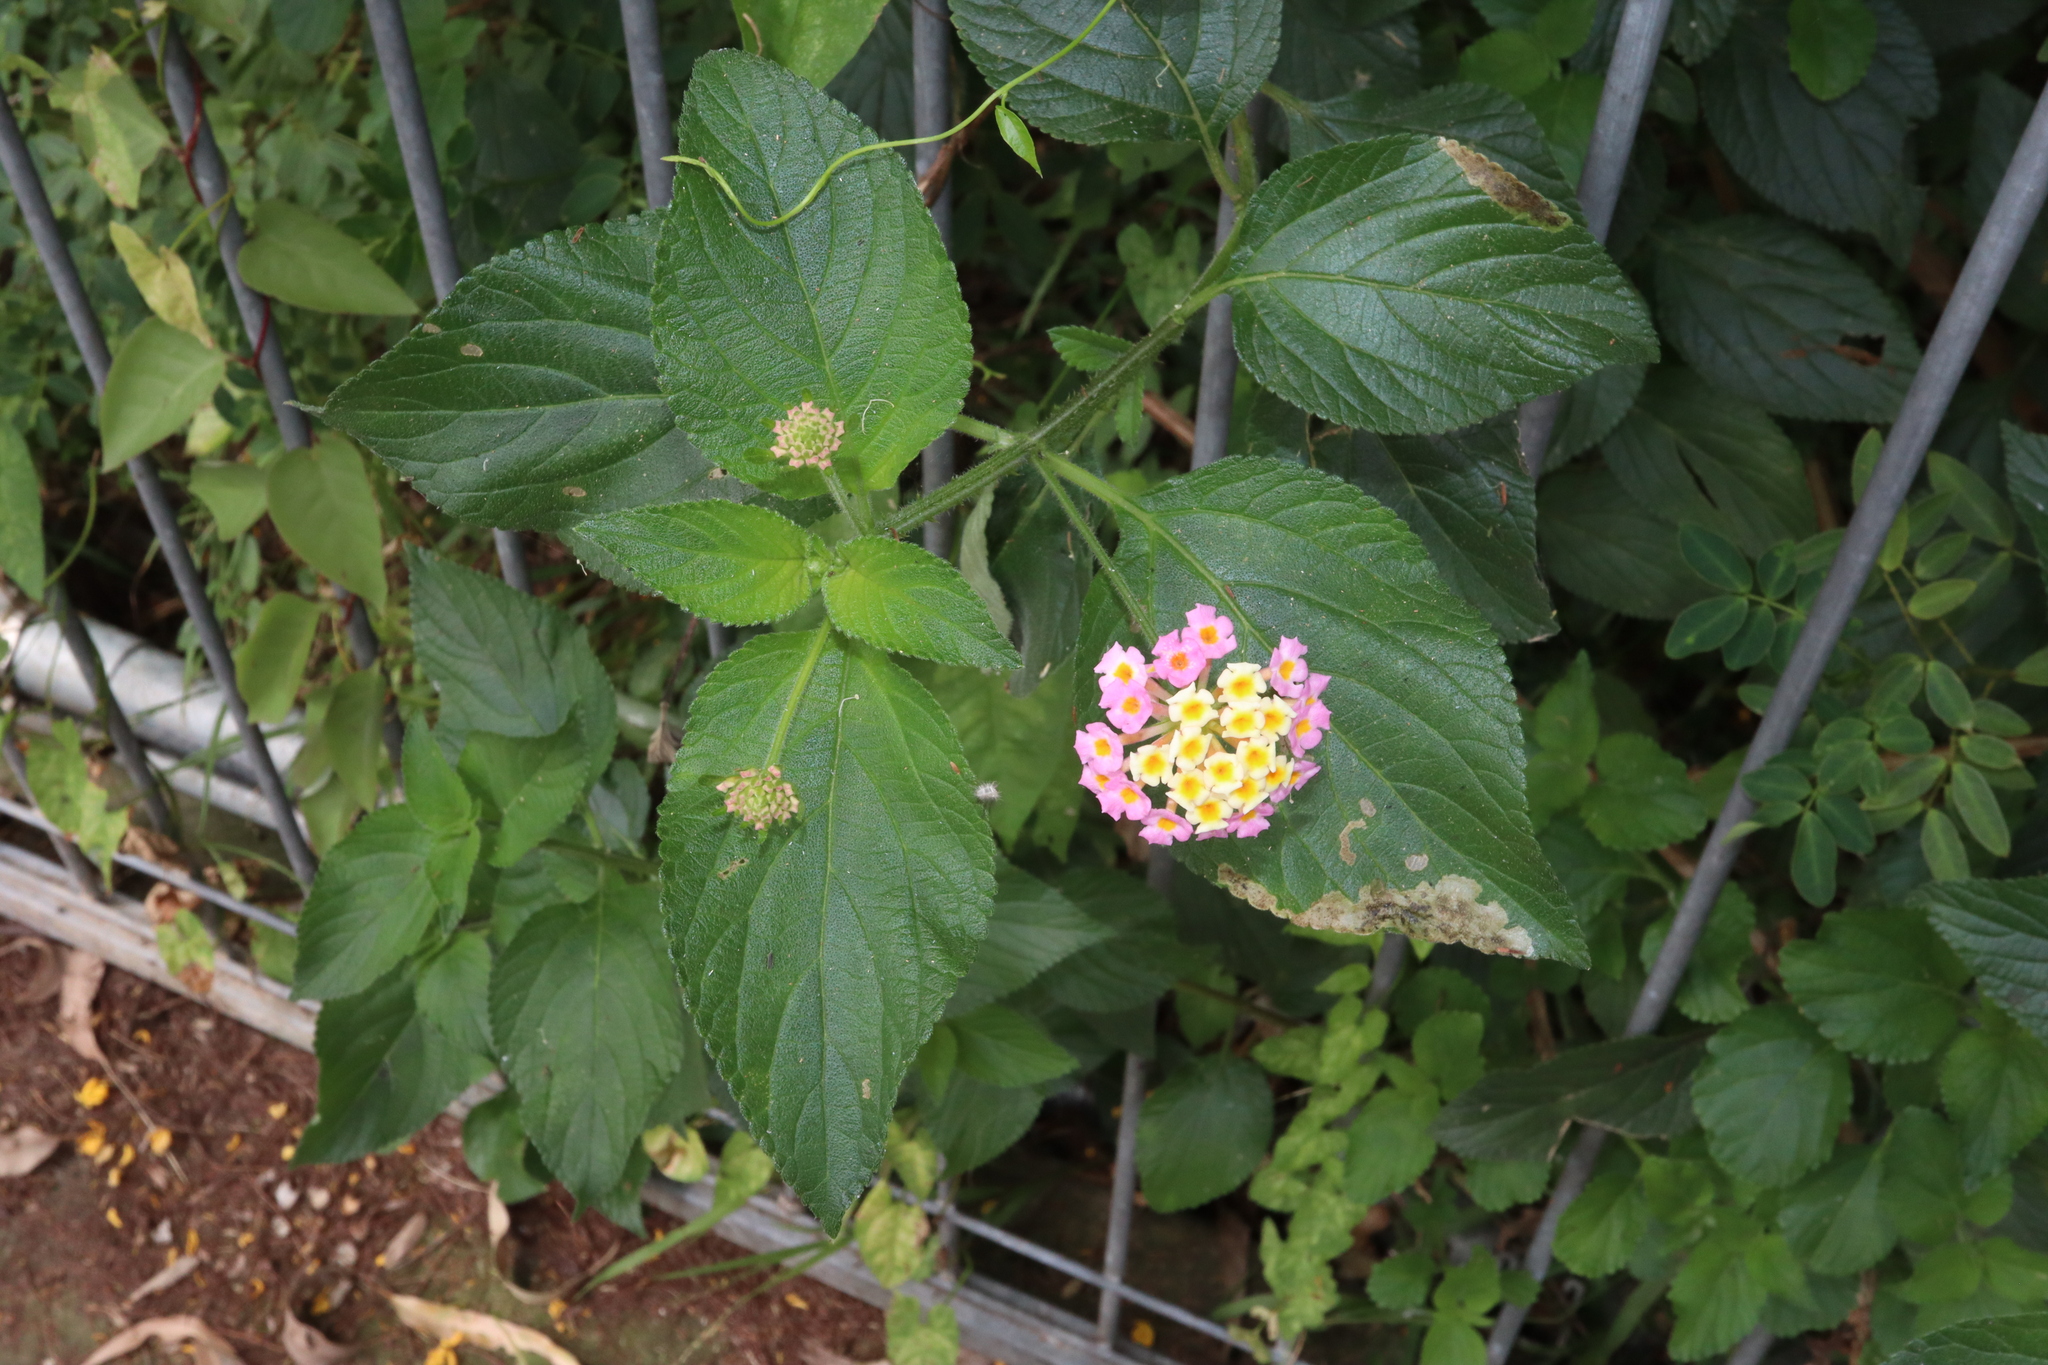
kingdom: Plantae
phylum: Tracheophyta
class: Magnoliopsida
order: Lamiales
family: Verbenaceae
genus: Lantana
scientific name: Lantana camara
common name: Lantana
